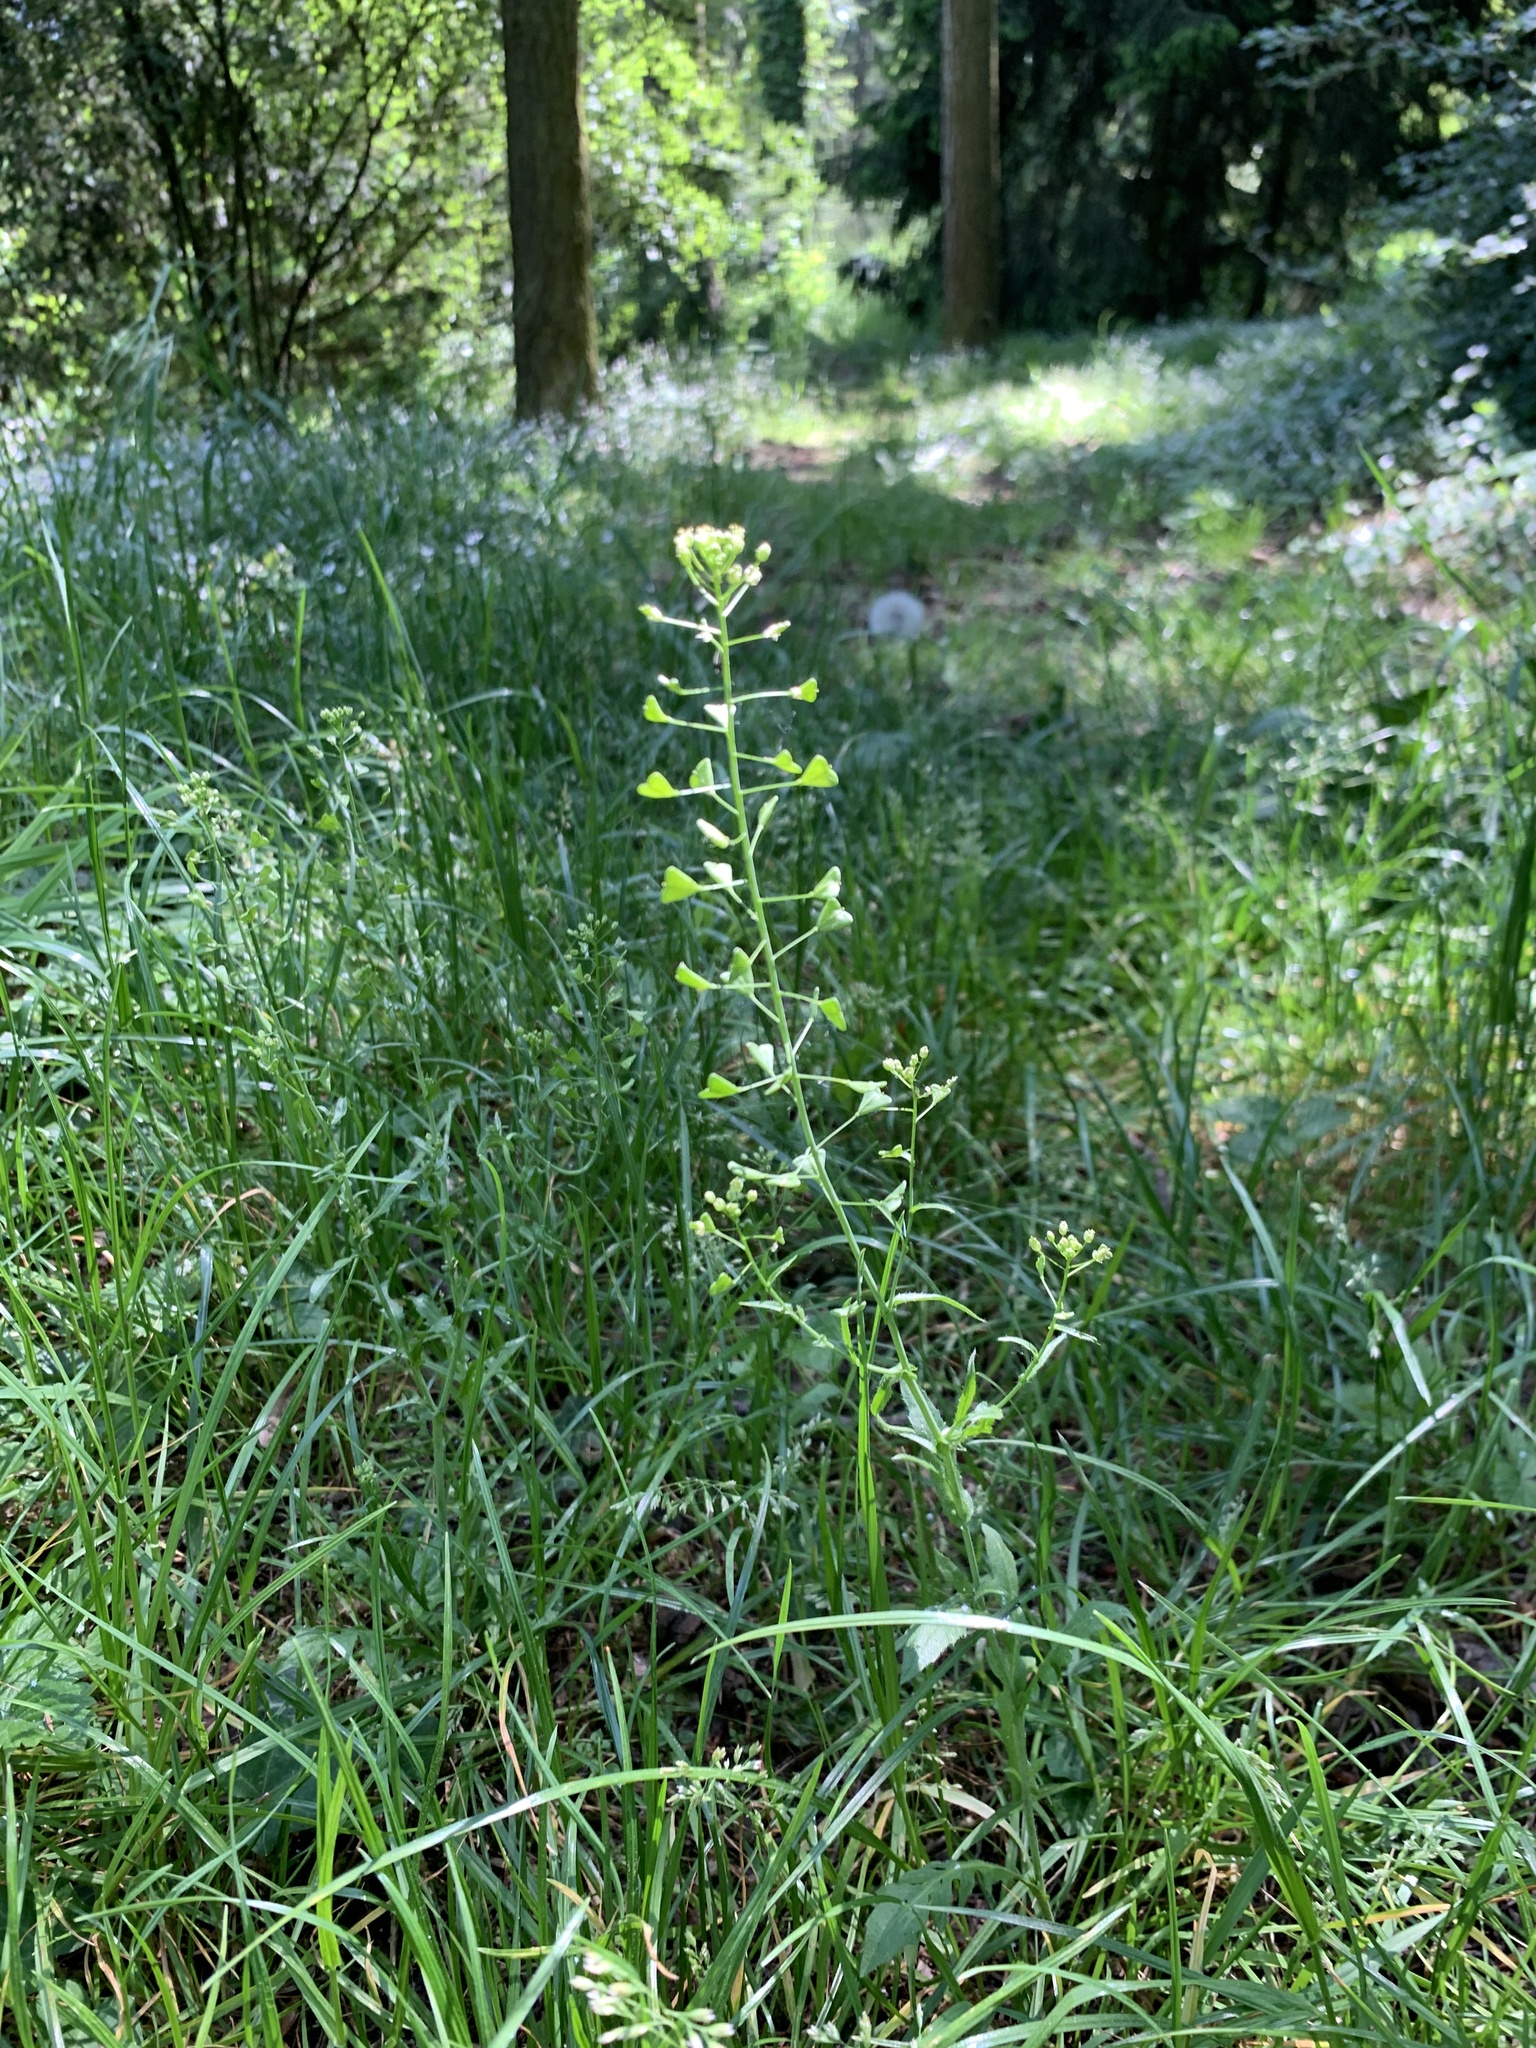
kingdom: Plantae
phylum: Tracheophyta
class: Magnoliopsida
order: Brassicales
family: Brassicaceae
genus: Capsella
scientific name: Capsella bursa-pastoris
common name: Shepherd's purse
